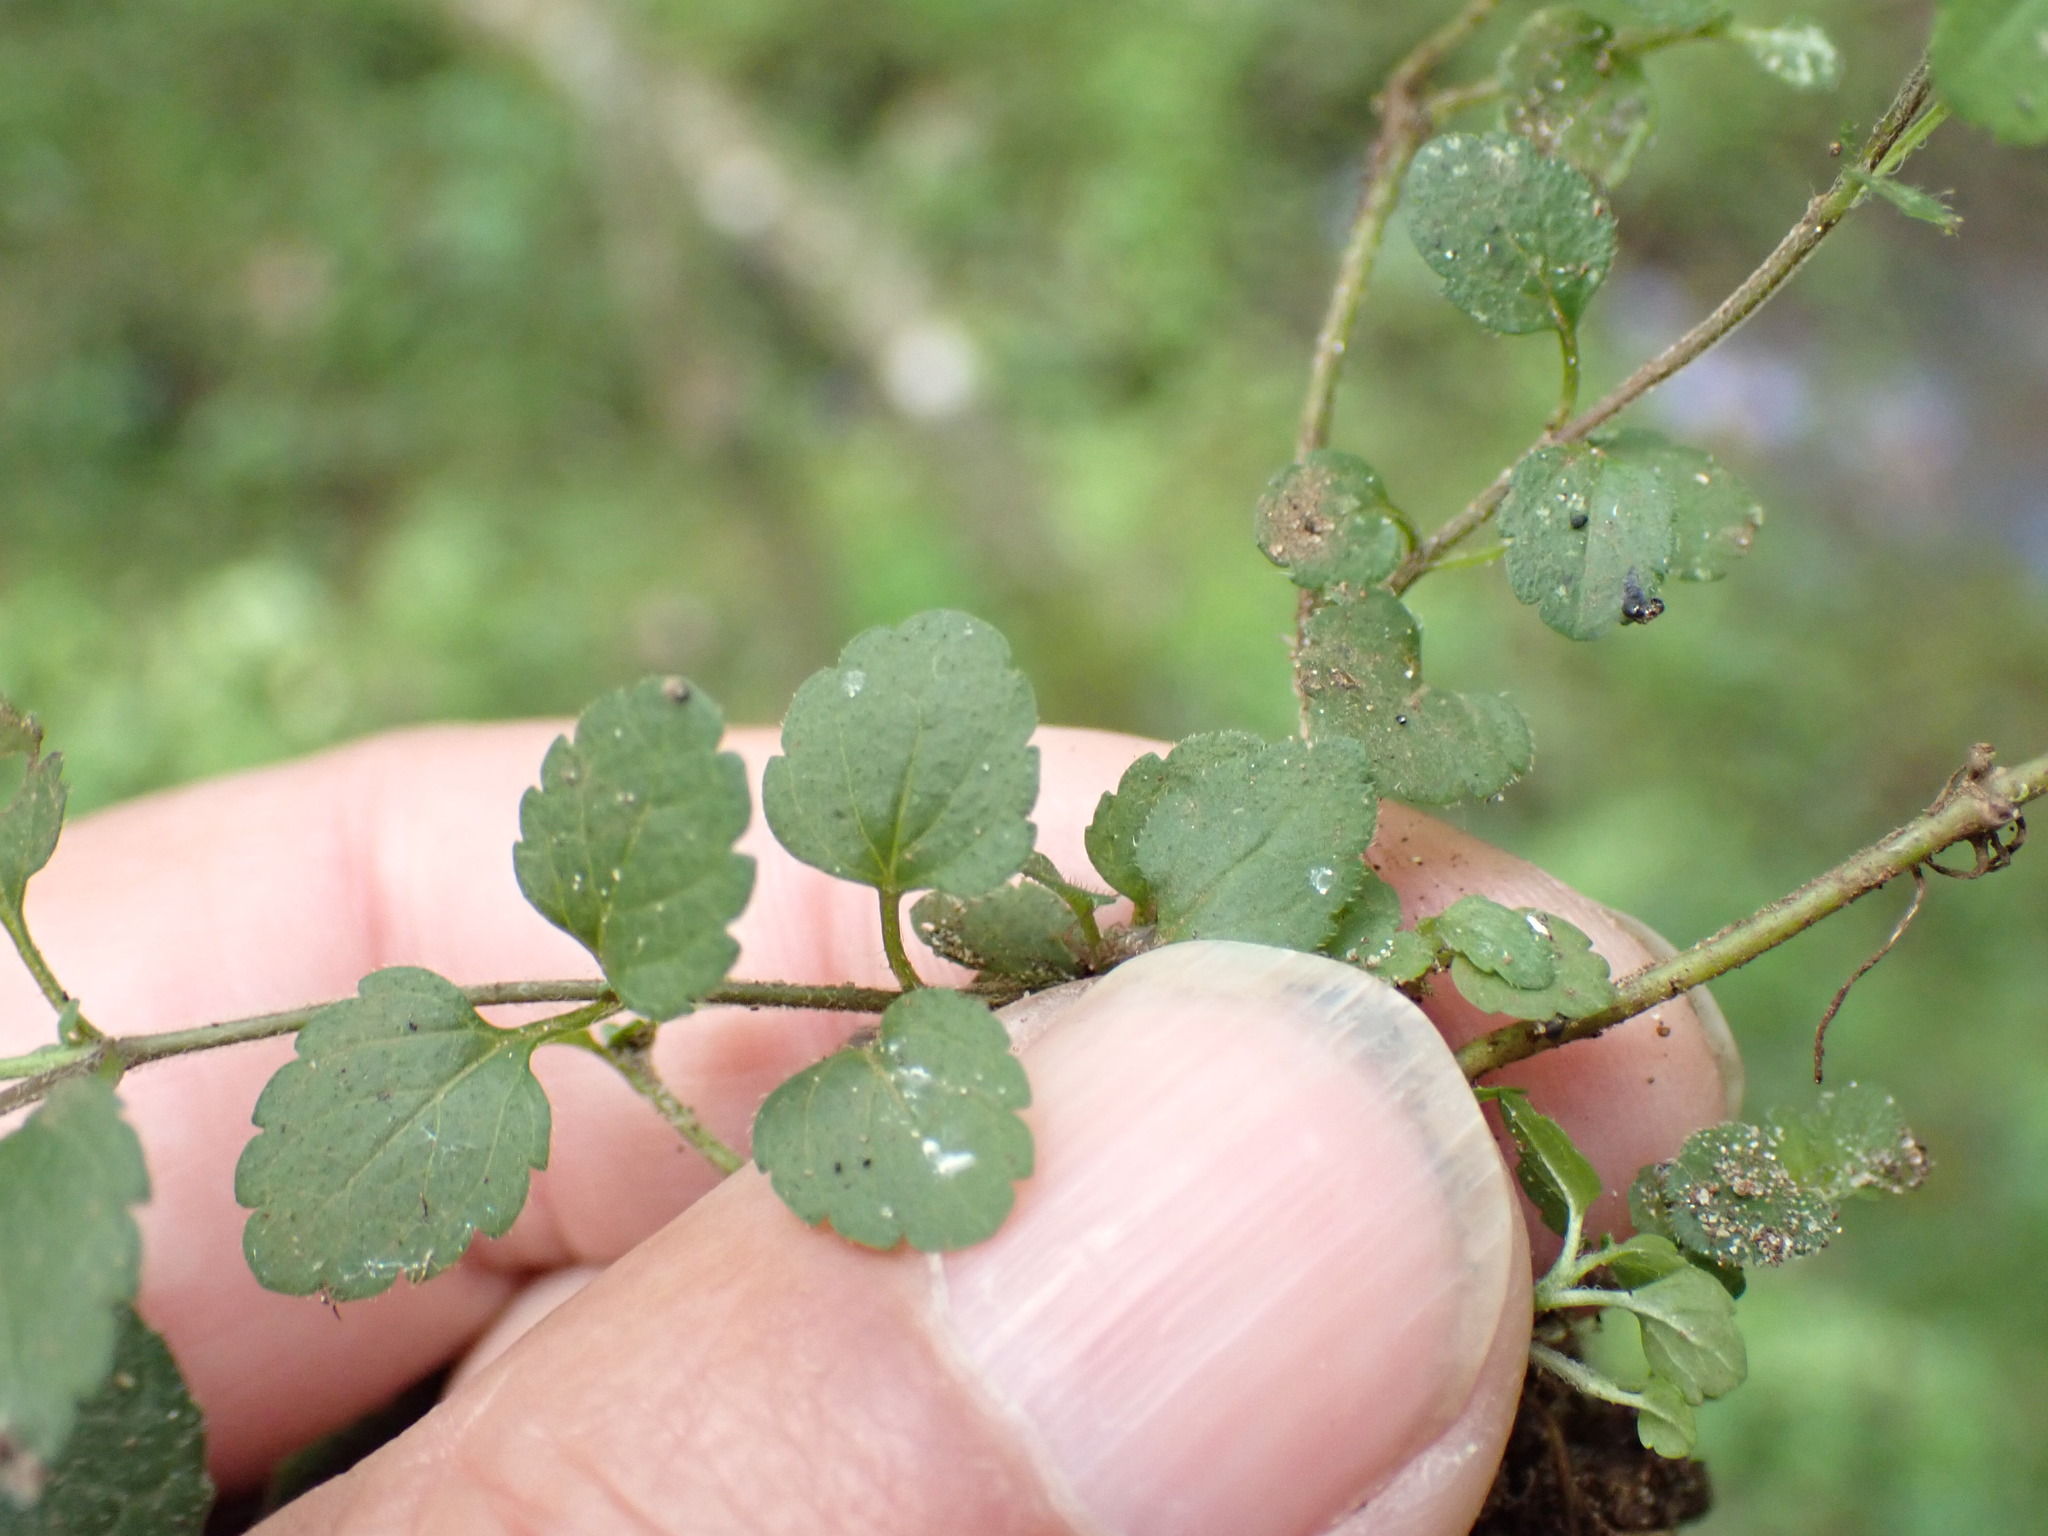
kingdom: Plantae
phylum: Tracheophyta
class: Magnoliopsida
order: Lamiales
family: Plantaginaceae
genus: Veronica
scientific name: Veronica chamaedrys
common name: Germander speedwell
